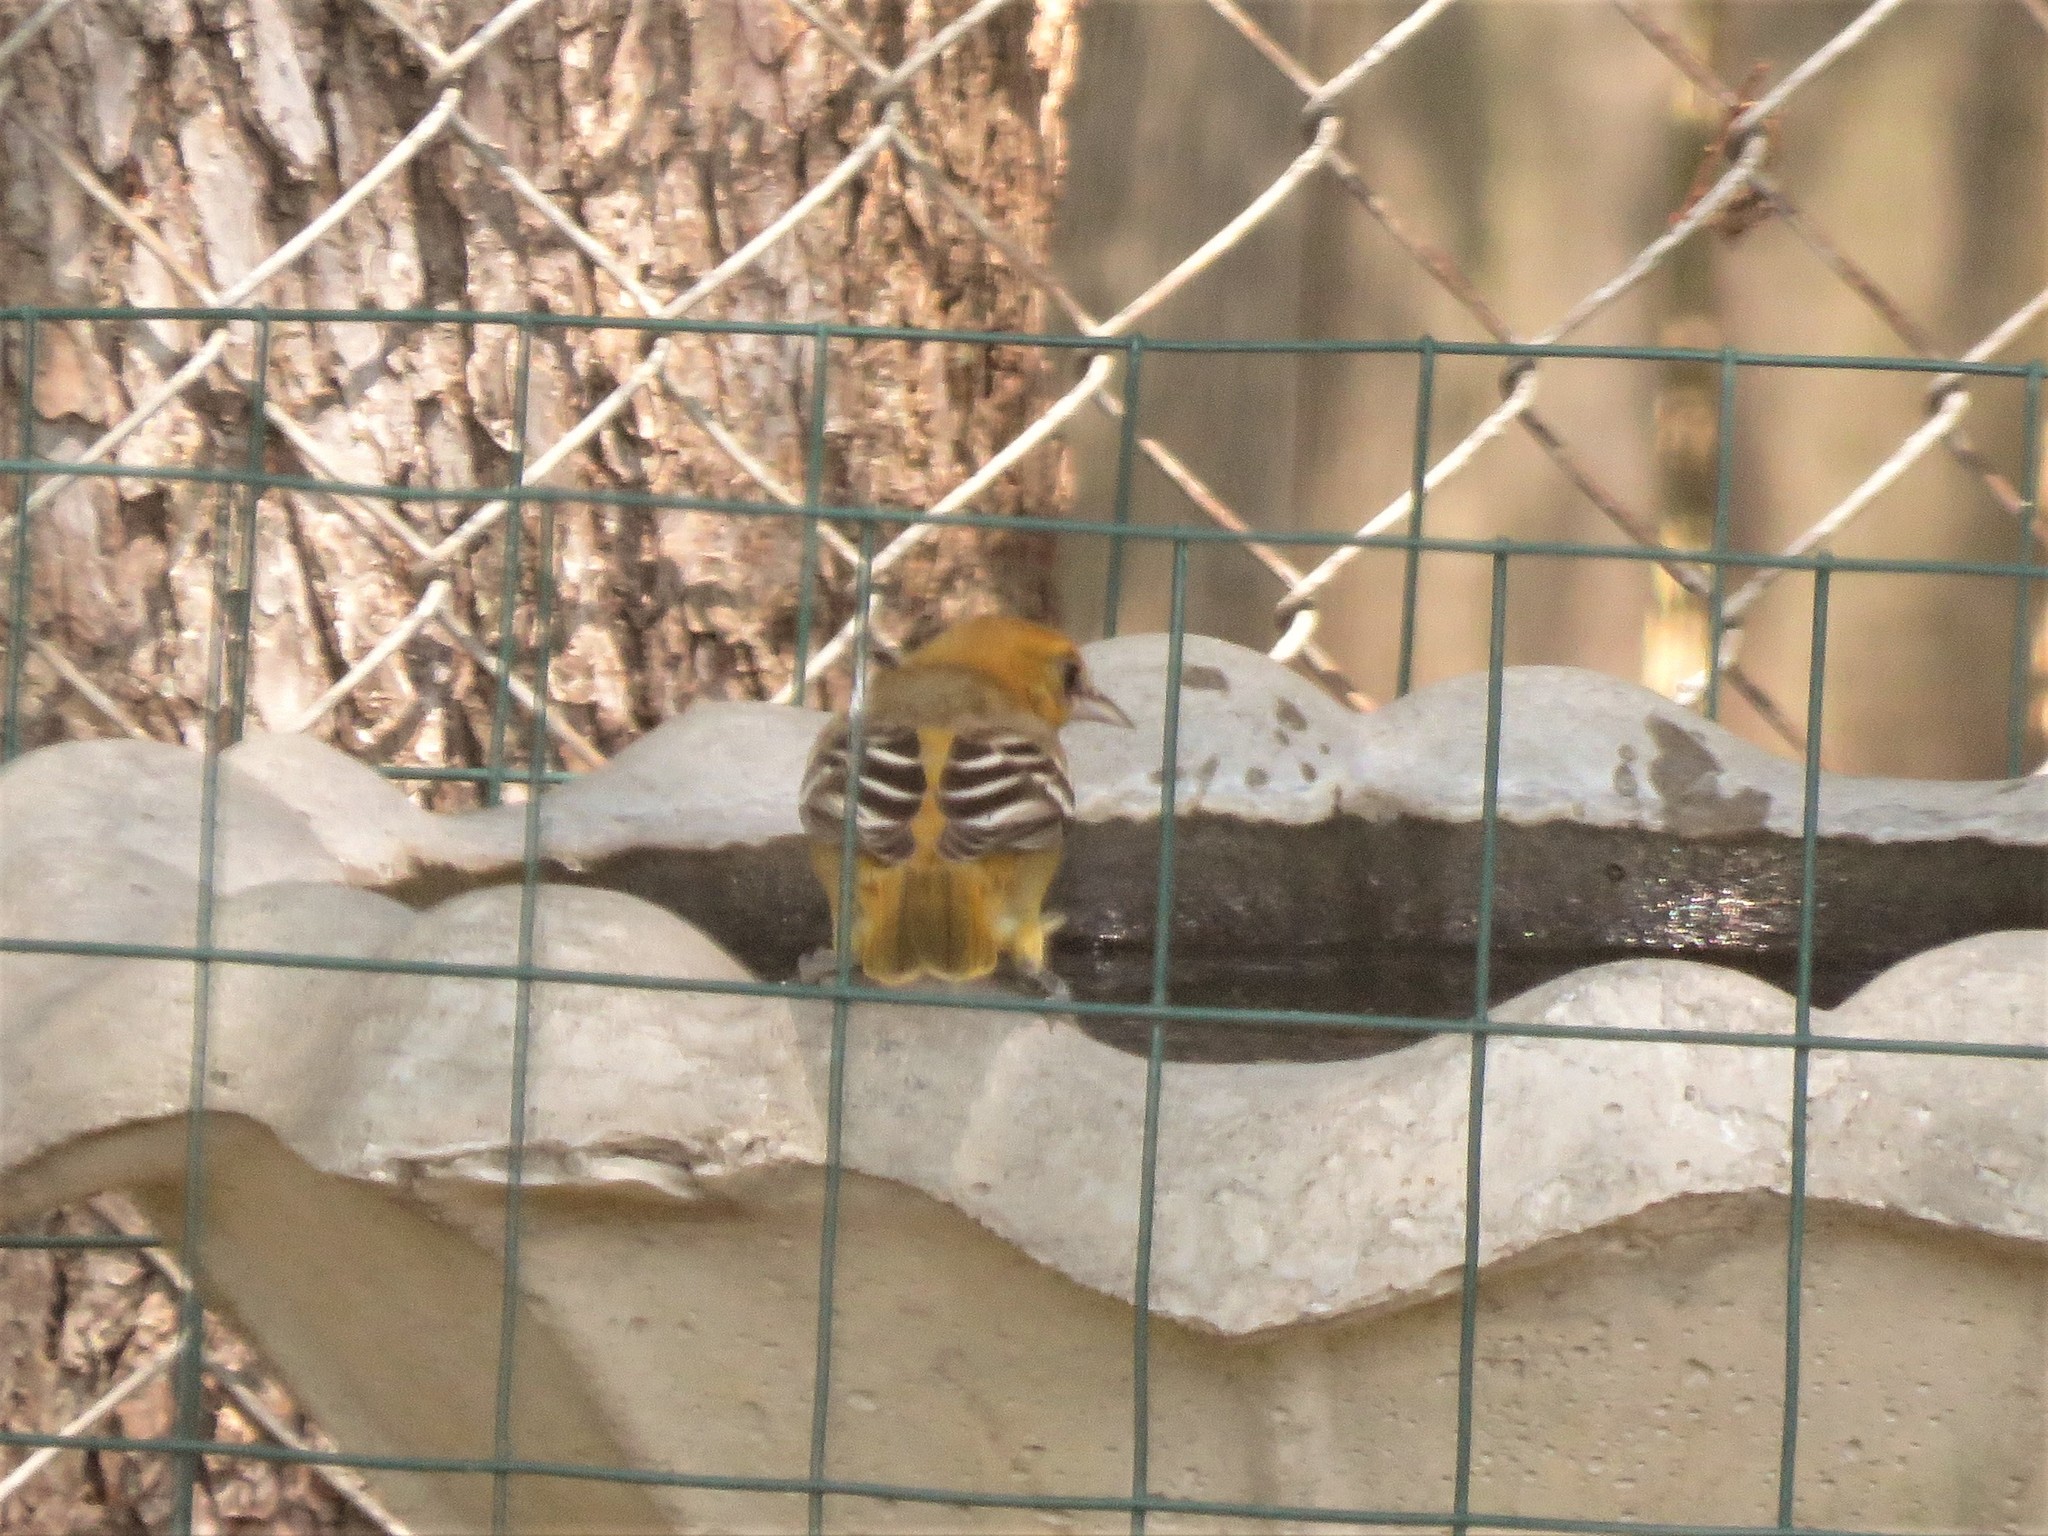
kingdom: Animalia
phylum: Chordata
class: Aves
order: Passeriformes
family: Icteridae
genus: Icterus
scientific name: Icterus galbula
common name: Baltimore oriole
